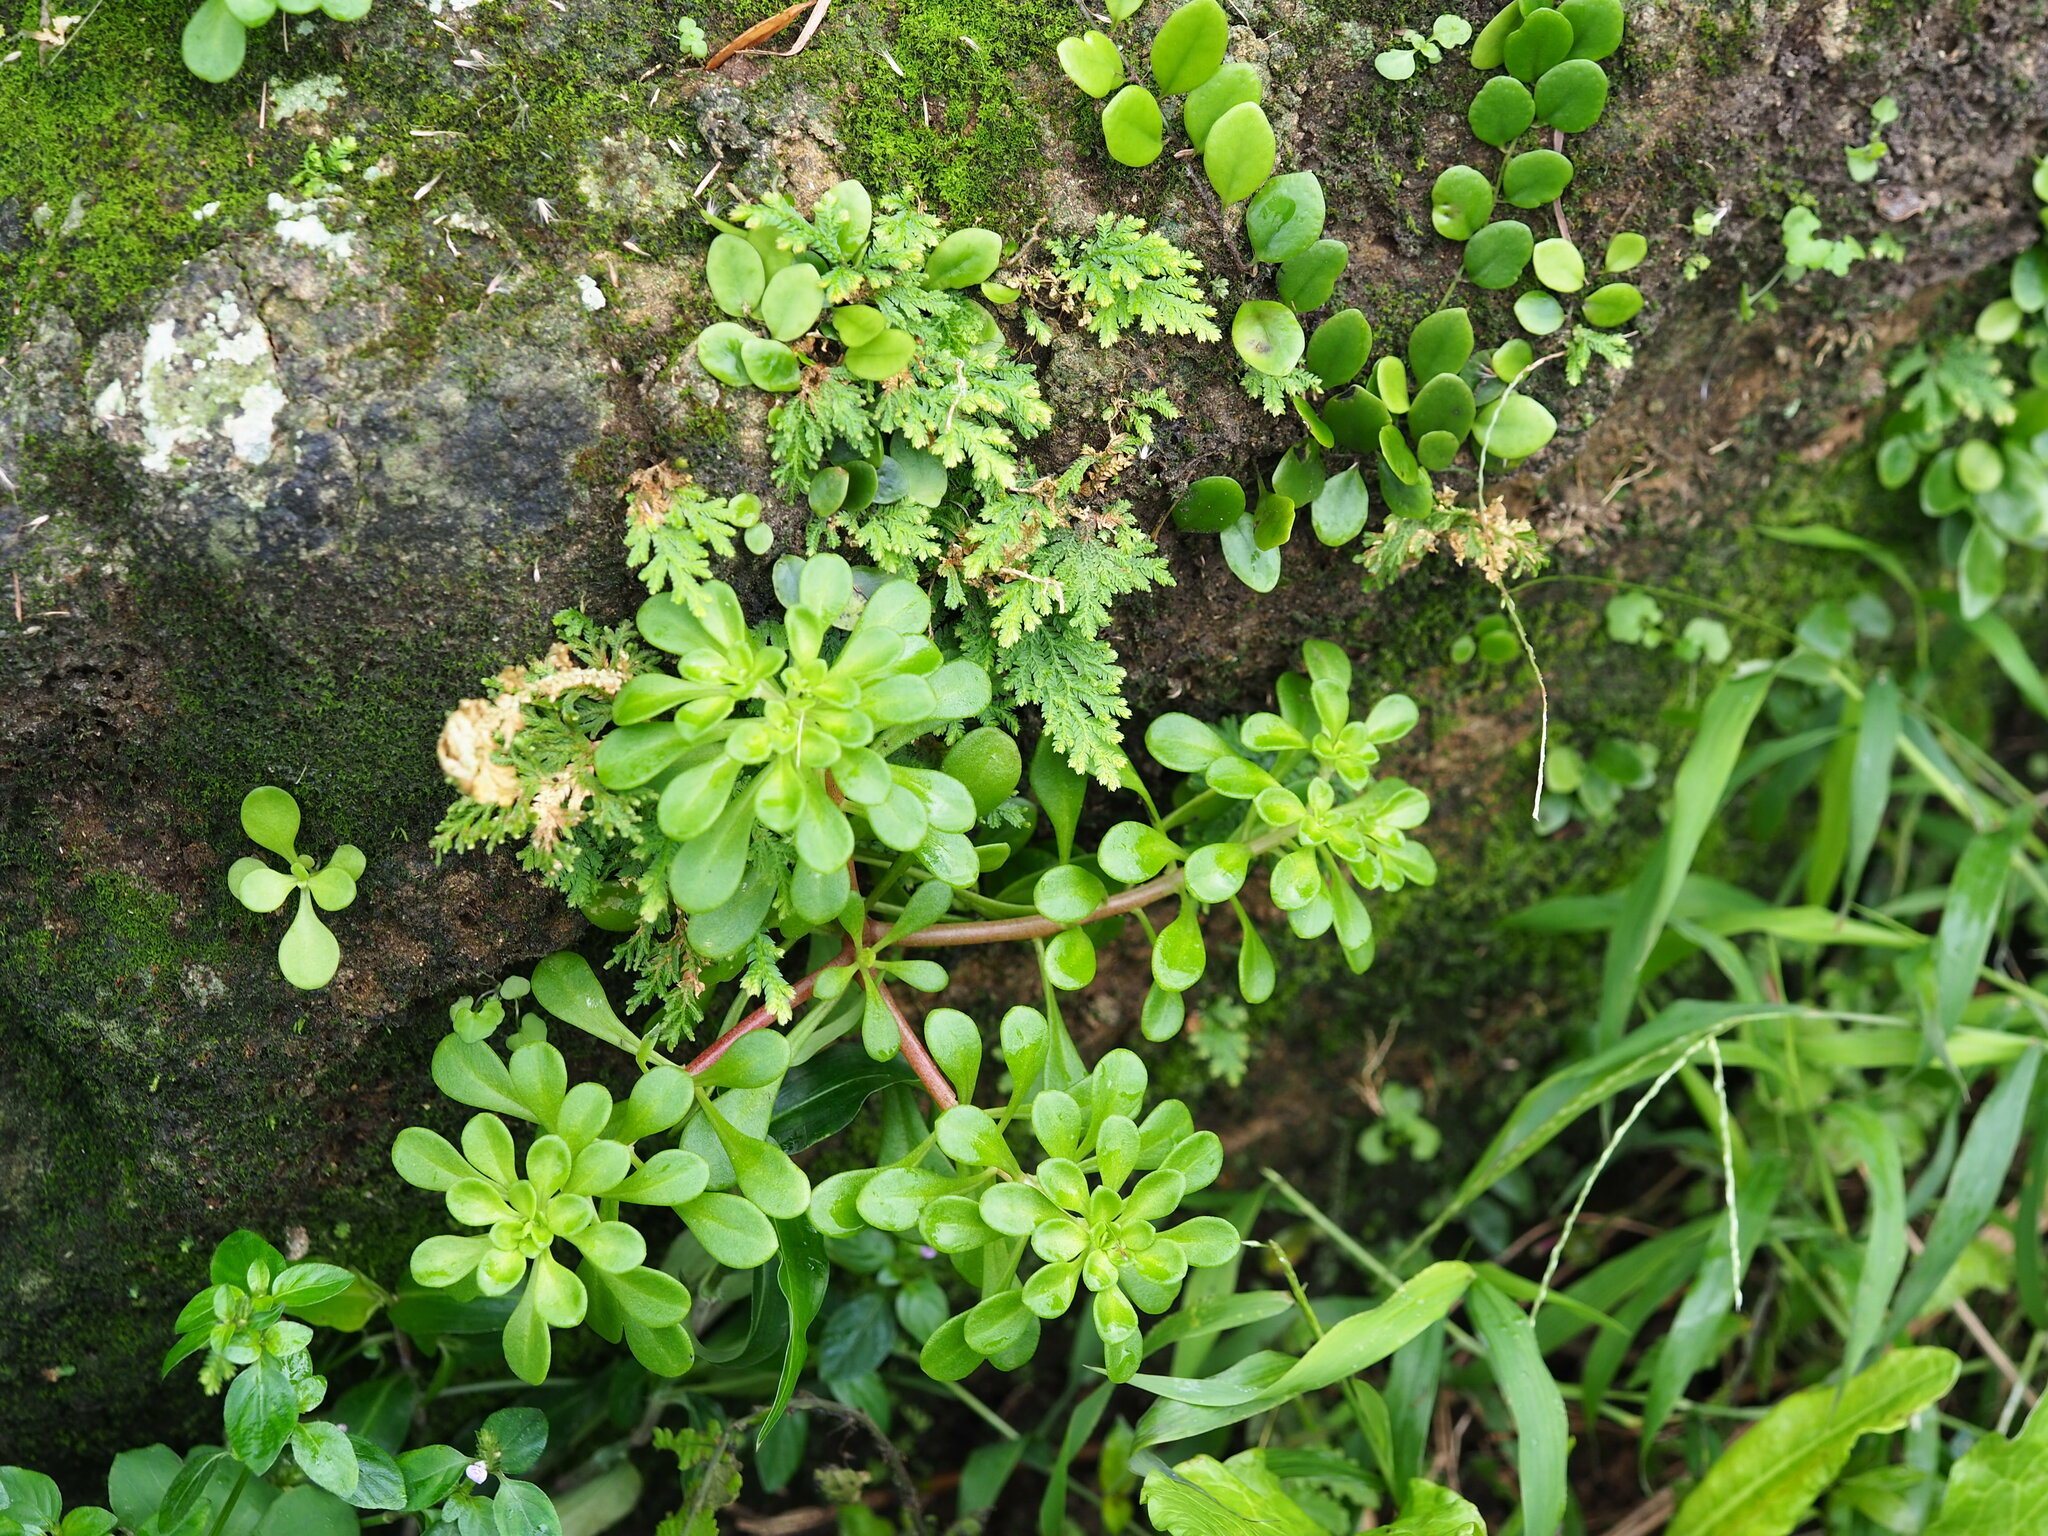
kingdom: Plantae
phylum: Tracheophyta
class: Magnoliopsida
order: Saxifragales
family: Crassulaceae
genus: Sedum
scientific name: Sedum formosanum
